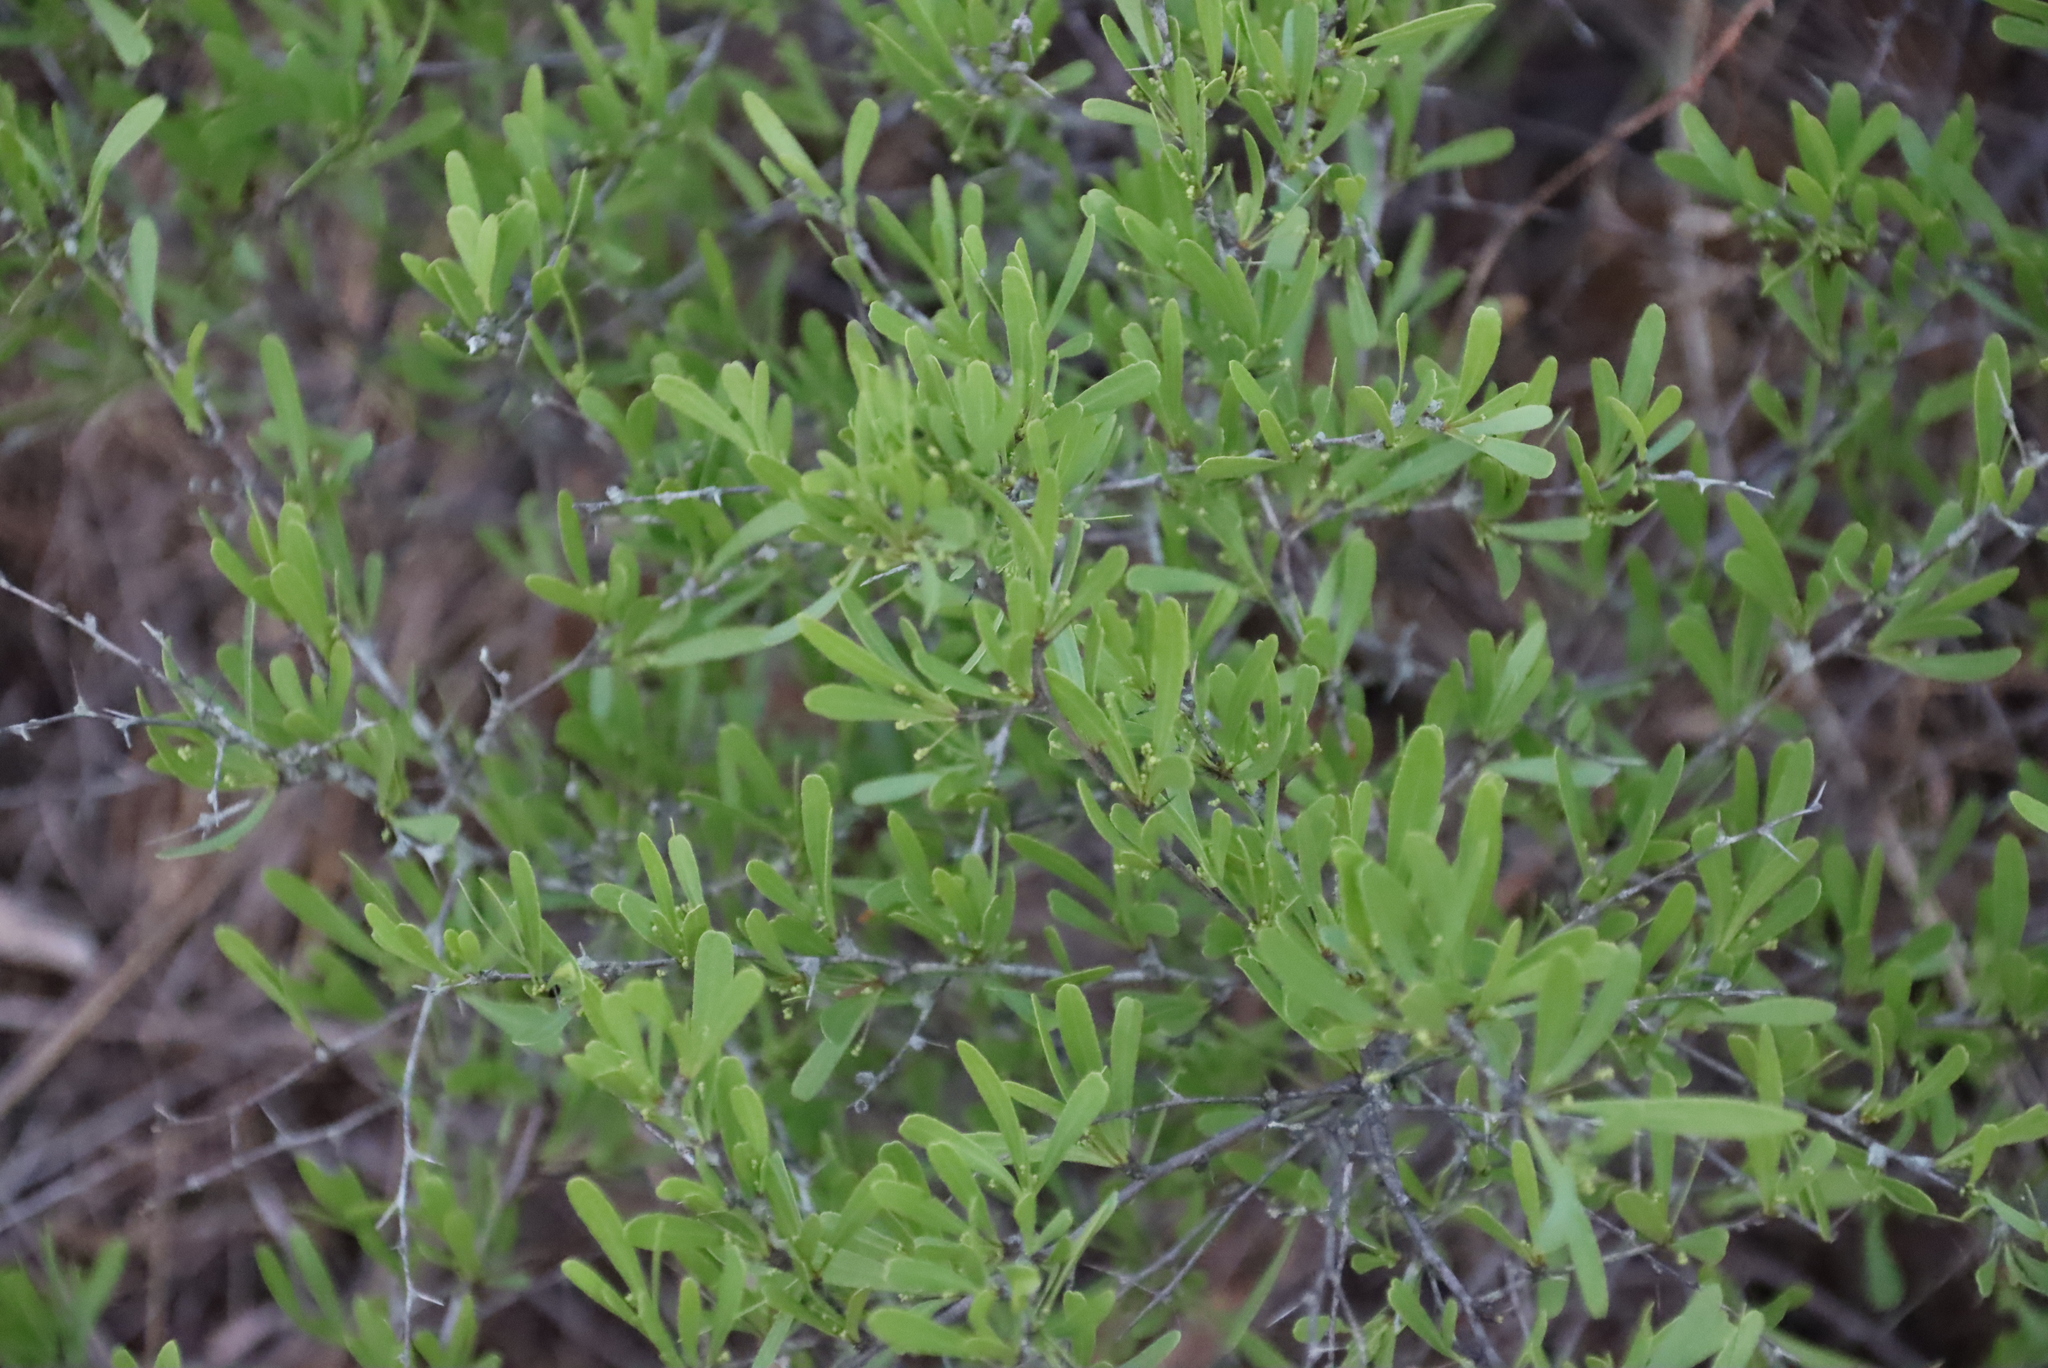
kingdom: Plantae
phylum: Tracheophyta
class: Magnoliopsida
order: Celastrales
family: Celastraceae
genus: Gymnosporia
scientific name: Gymnosporia tenuispina
